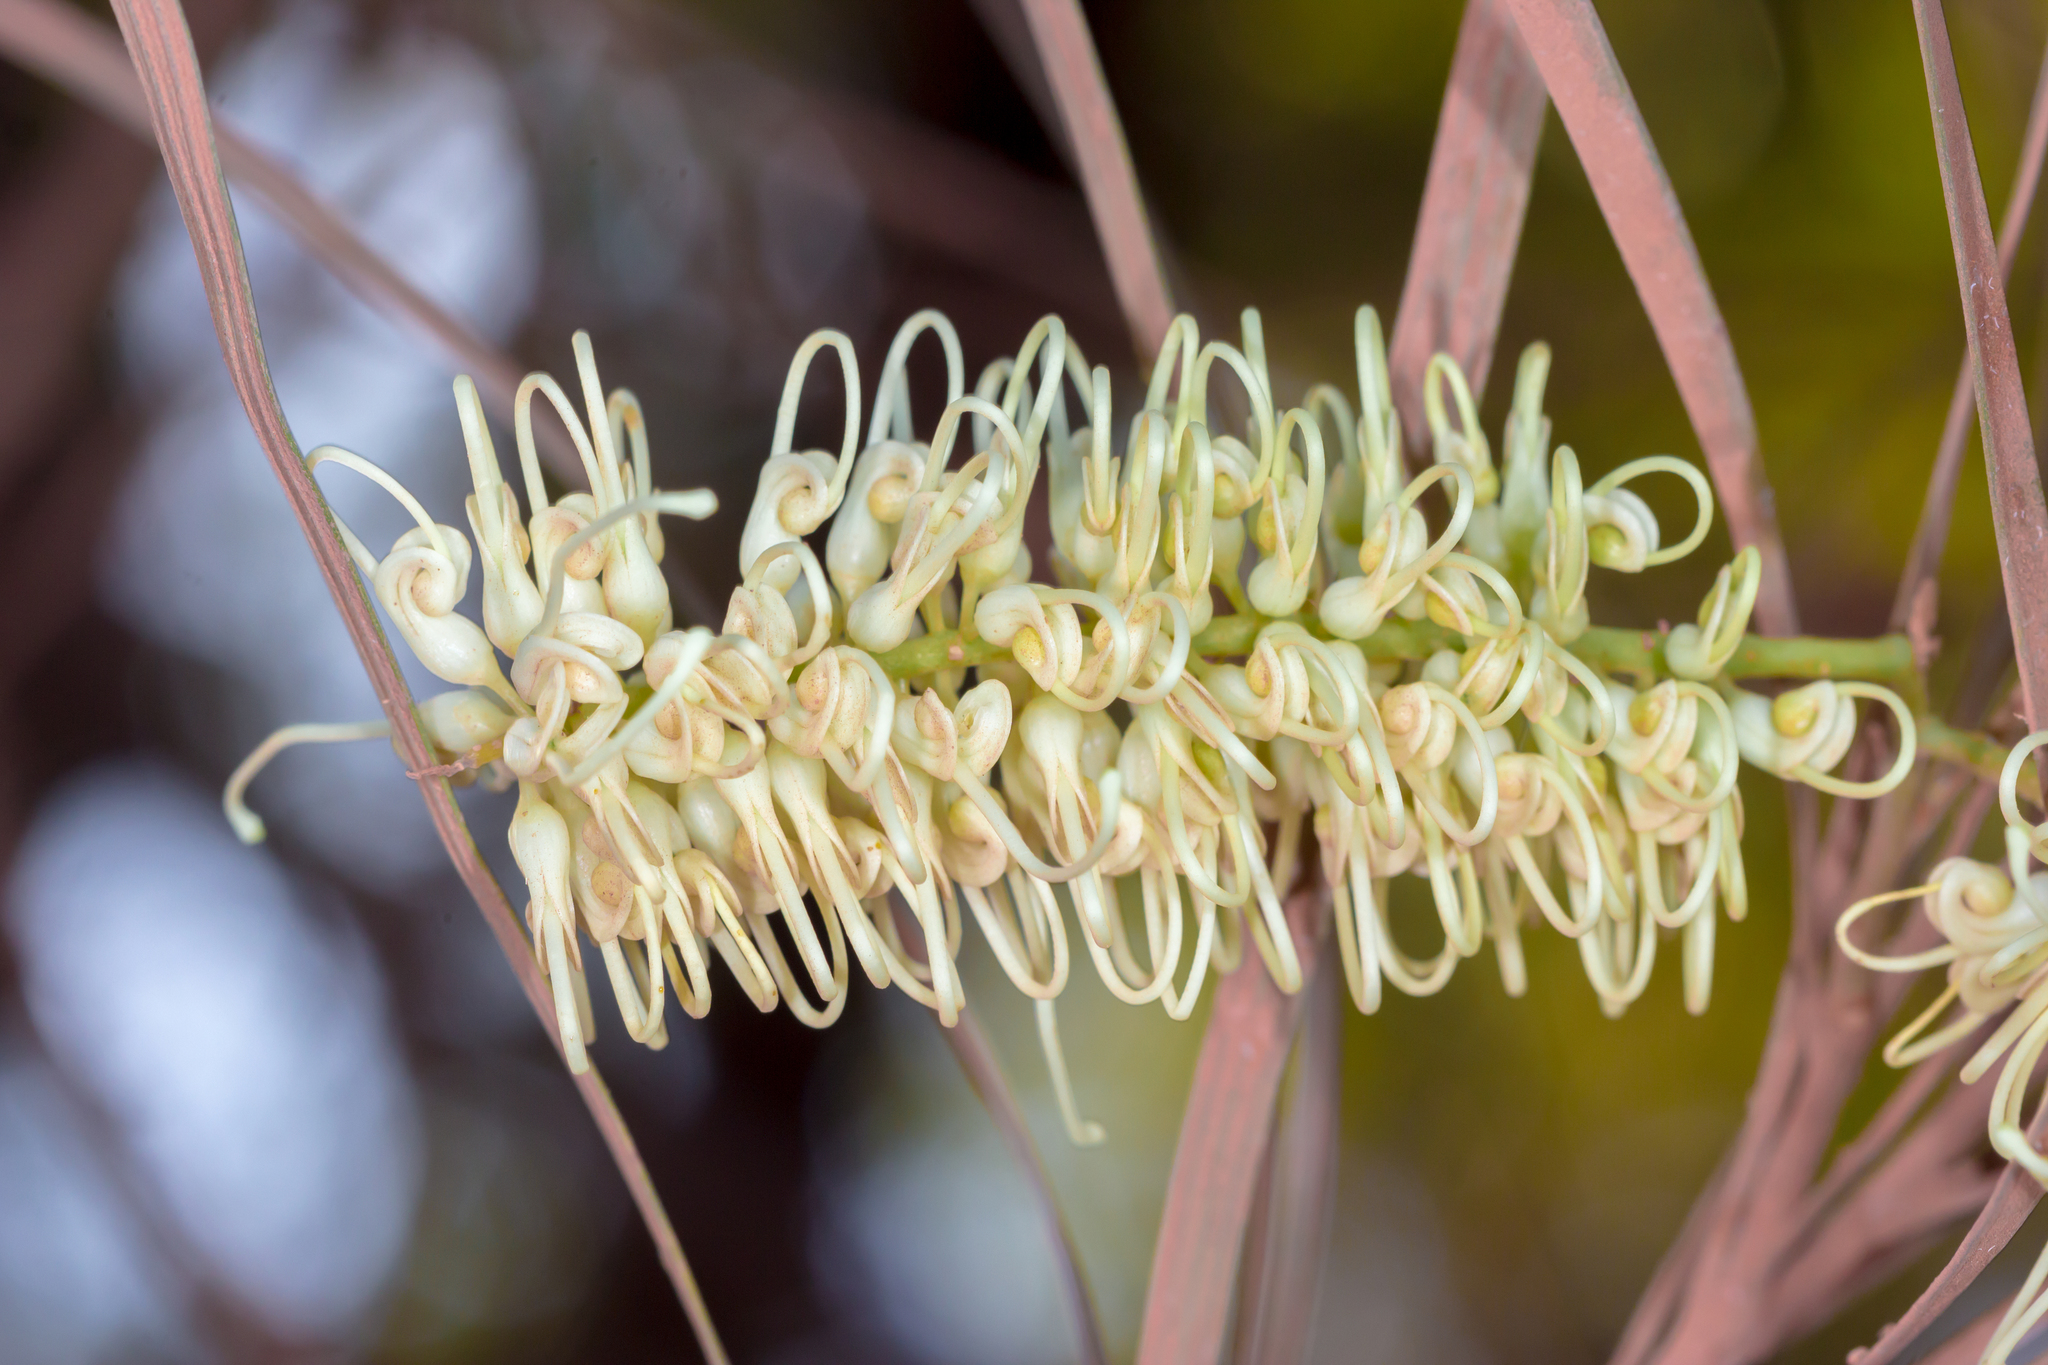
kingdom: Plantae
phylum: Tracheophyta
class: Magnoliopsida
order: Proteales
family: Proteaceae
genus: Grevillea
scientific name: Grevillea parallela
